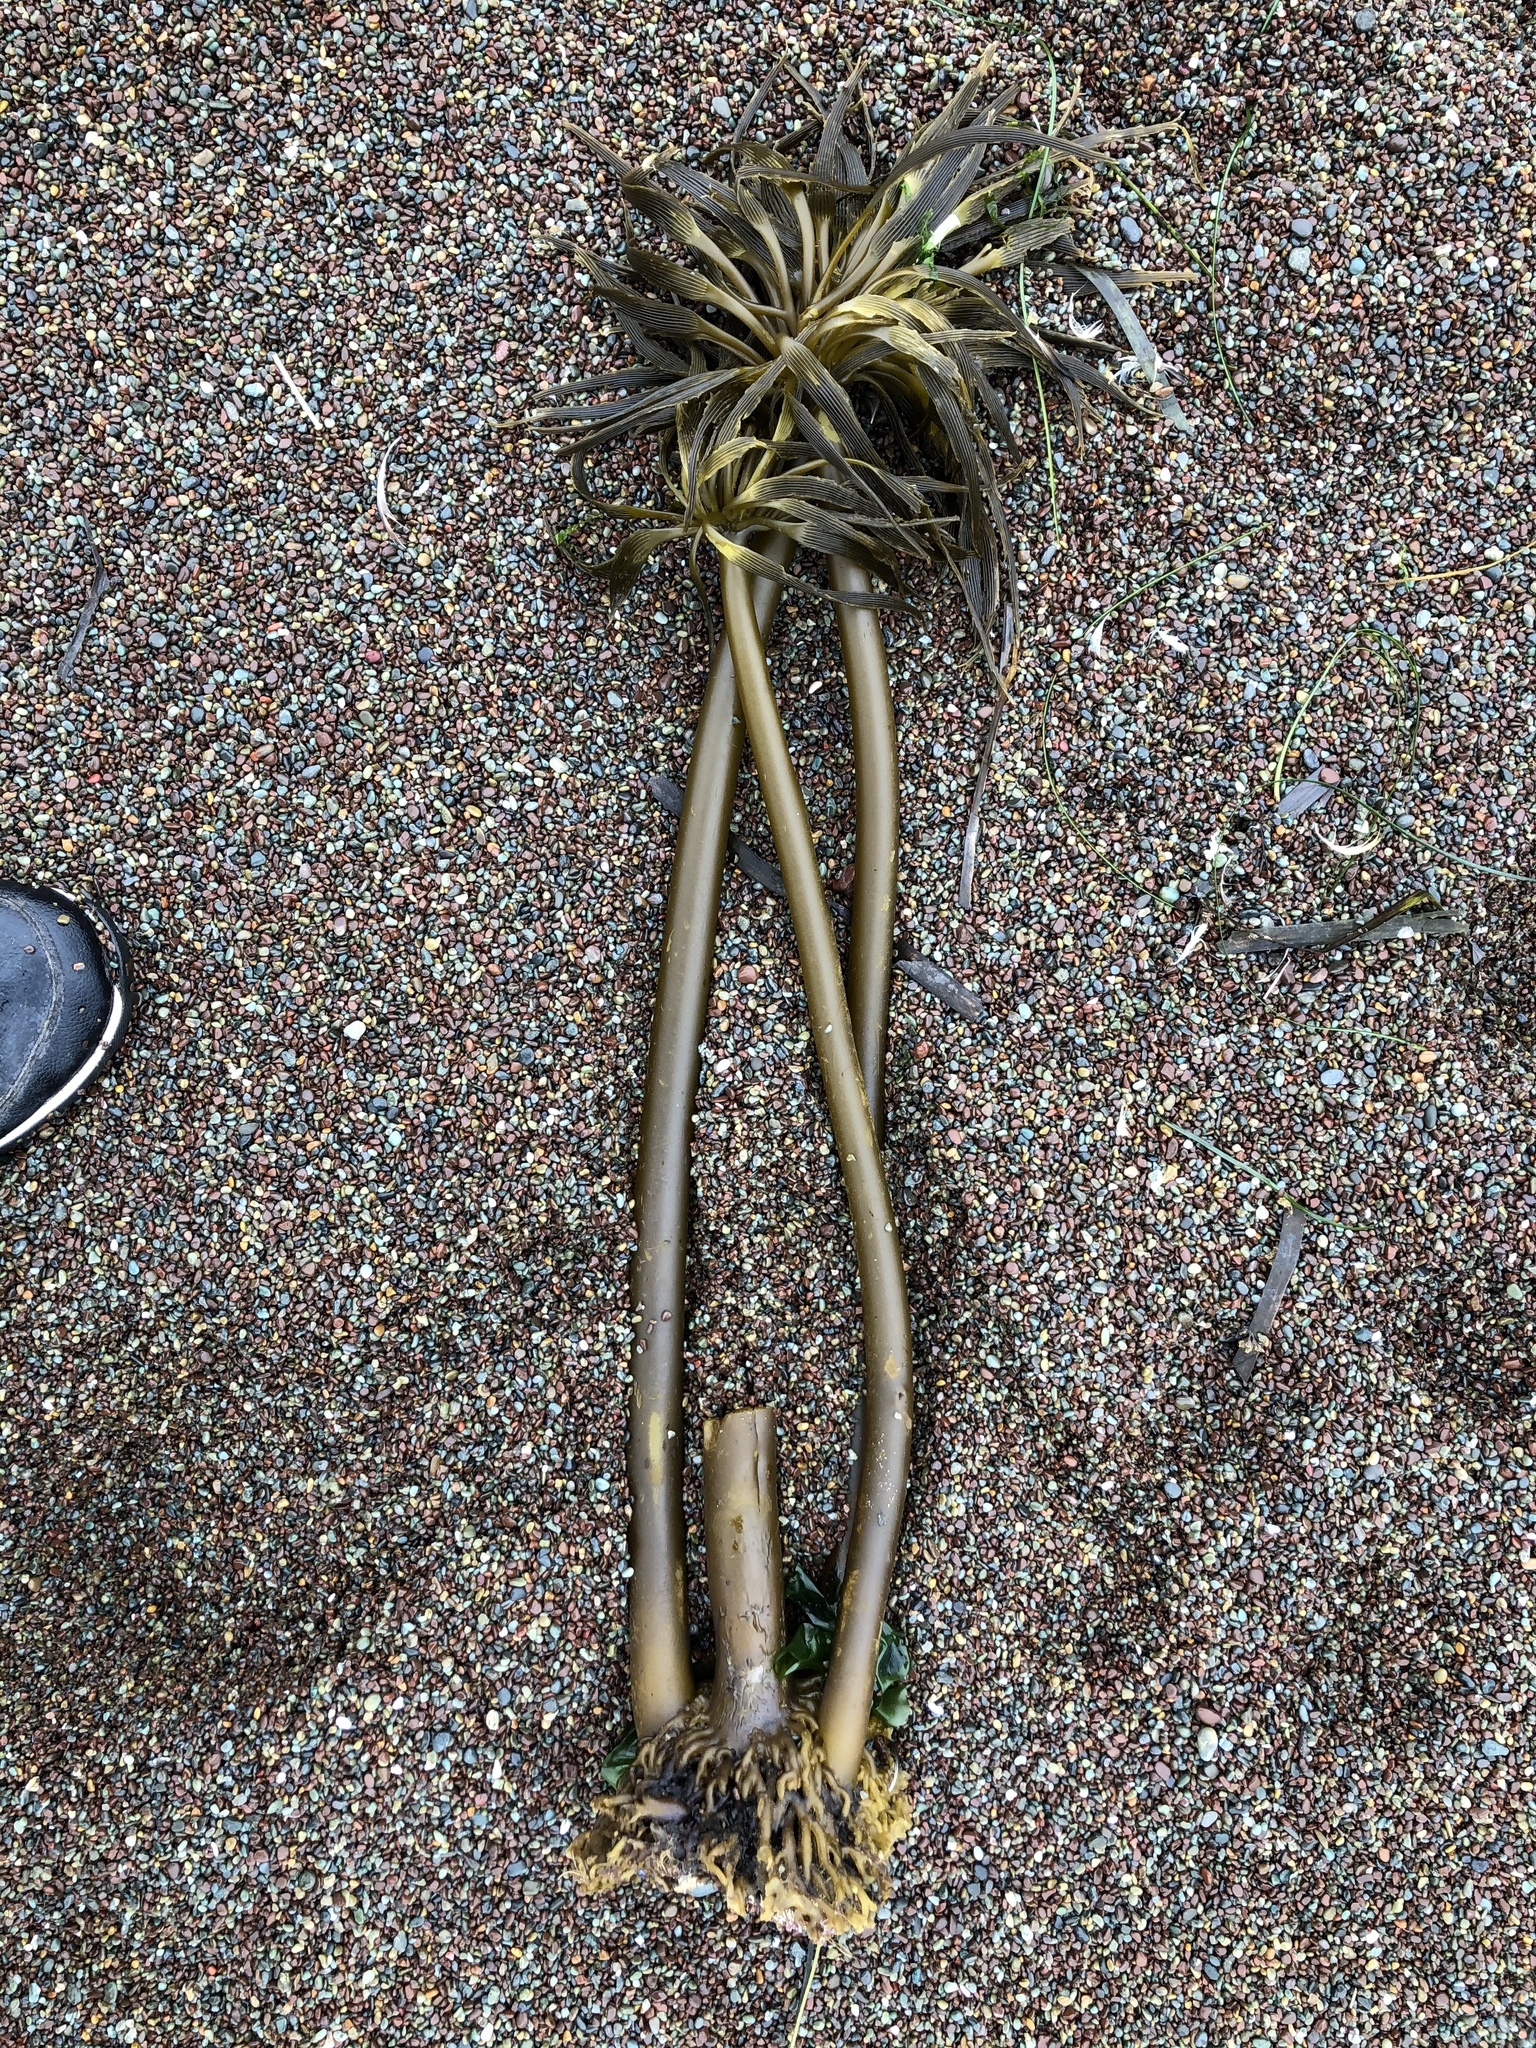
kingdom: Chromista
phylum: Ochrophyta
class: Phaeophyceae
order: Laminariales
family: Laminariaceae
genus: Postelsia
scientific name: Postelsia palmiformis
